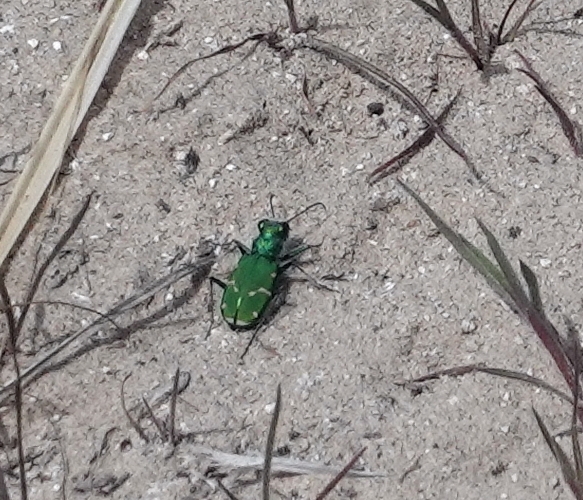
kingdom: Animalia
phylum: Arthropoda
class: Insecta
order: Coleoptera
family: Carabidae
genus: Cicindela
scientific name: Cicindela denverensis
